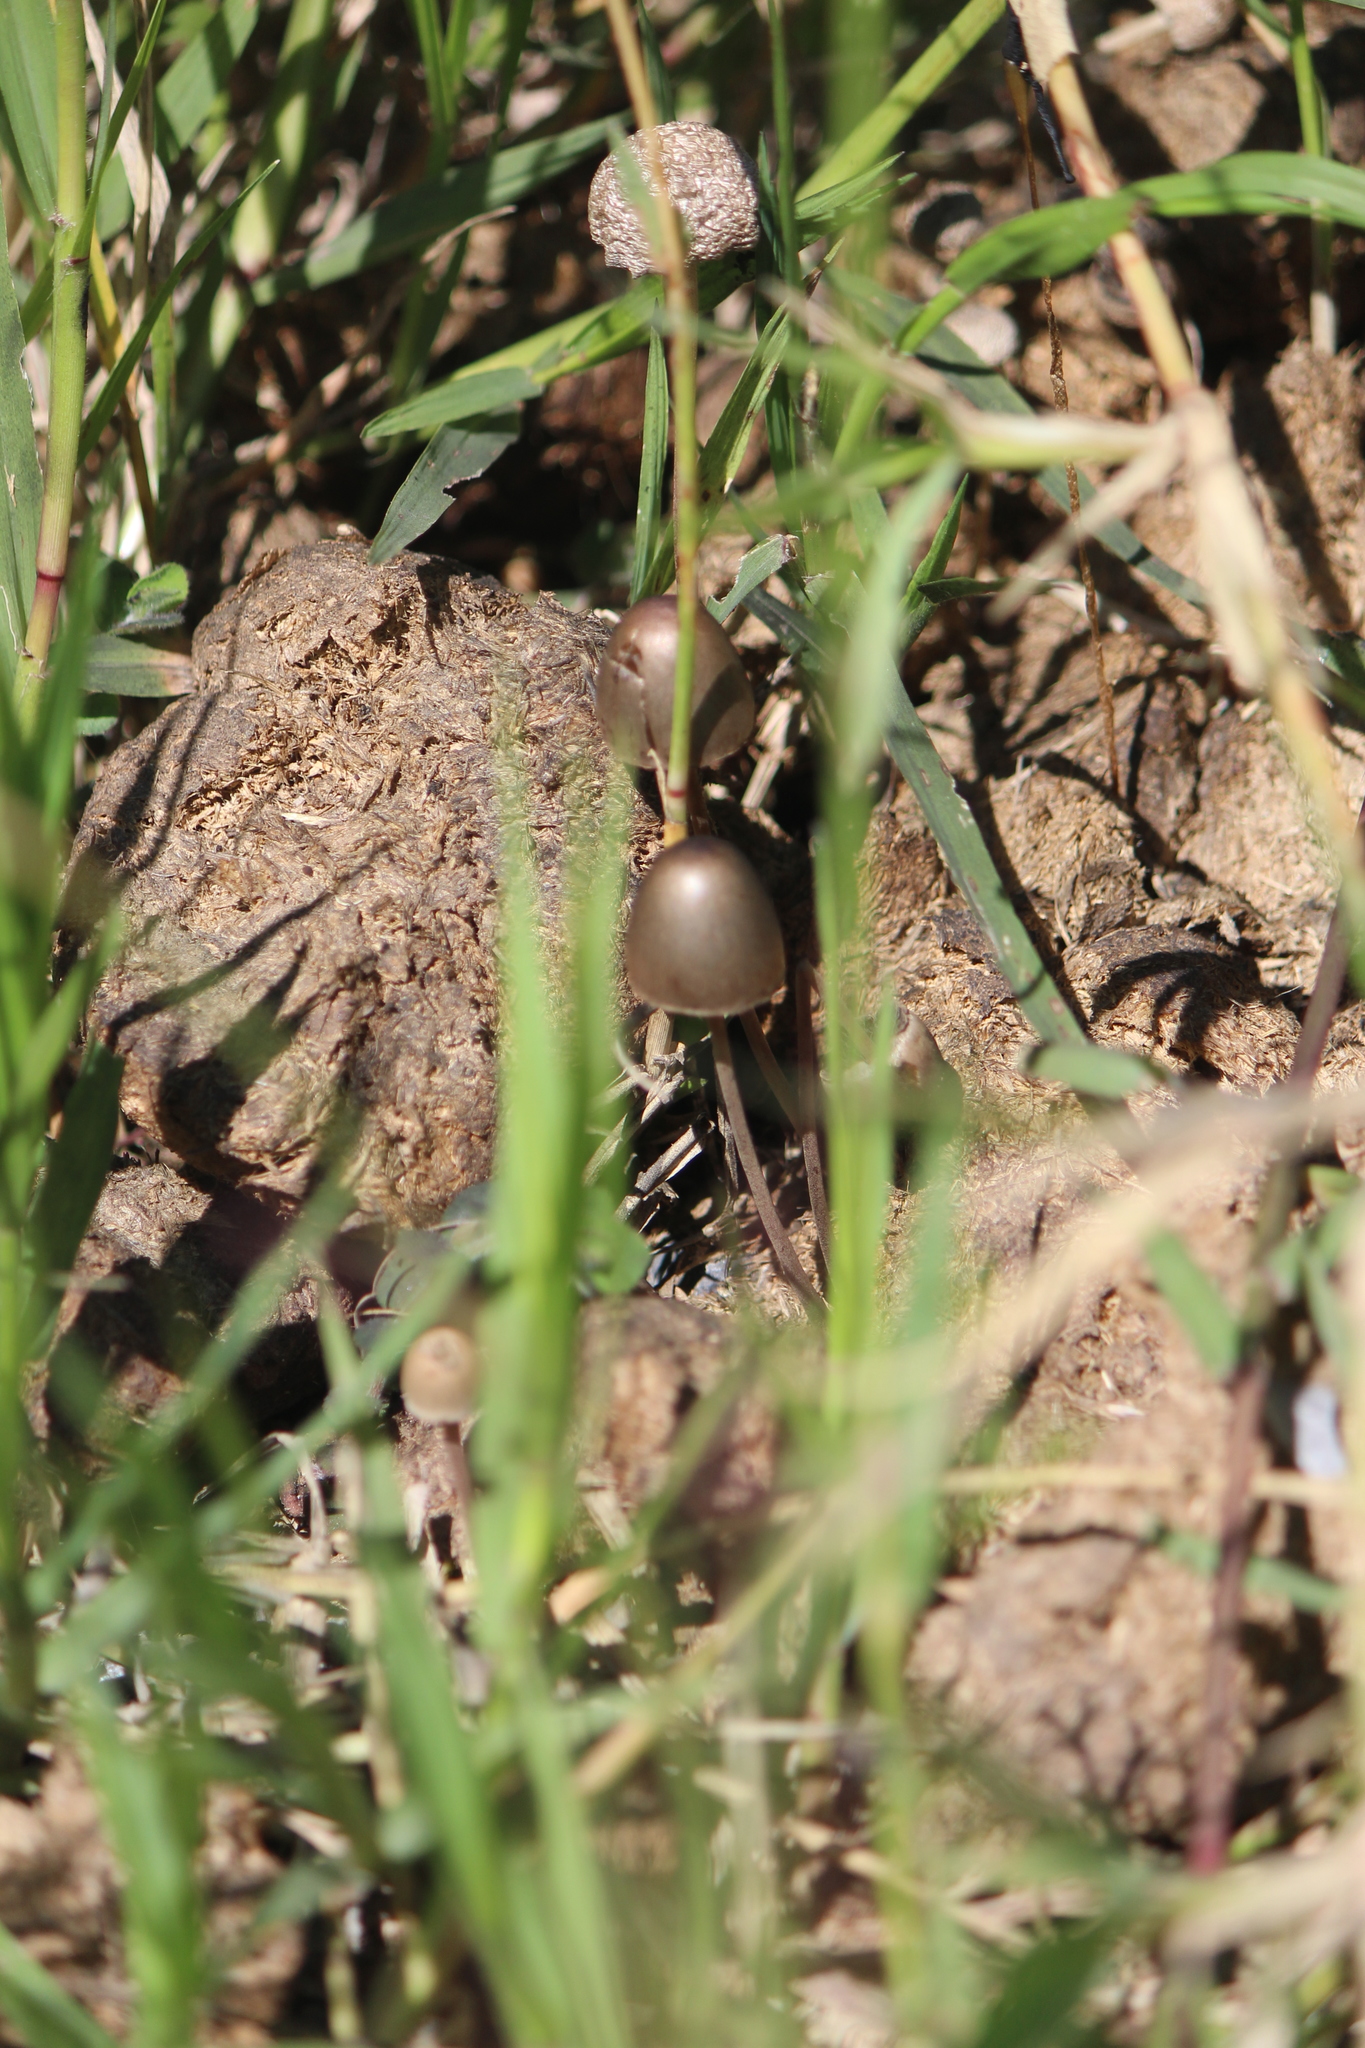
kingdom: Fungi
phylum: Basidiomycota
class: Agaricomycetes
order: Agaricales
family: Bolbitiaceae
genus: Panaeolus
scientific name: Panaeolus papilionaceus
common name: Petticoat mottlegill
